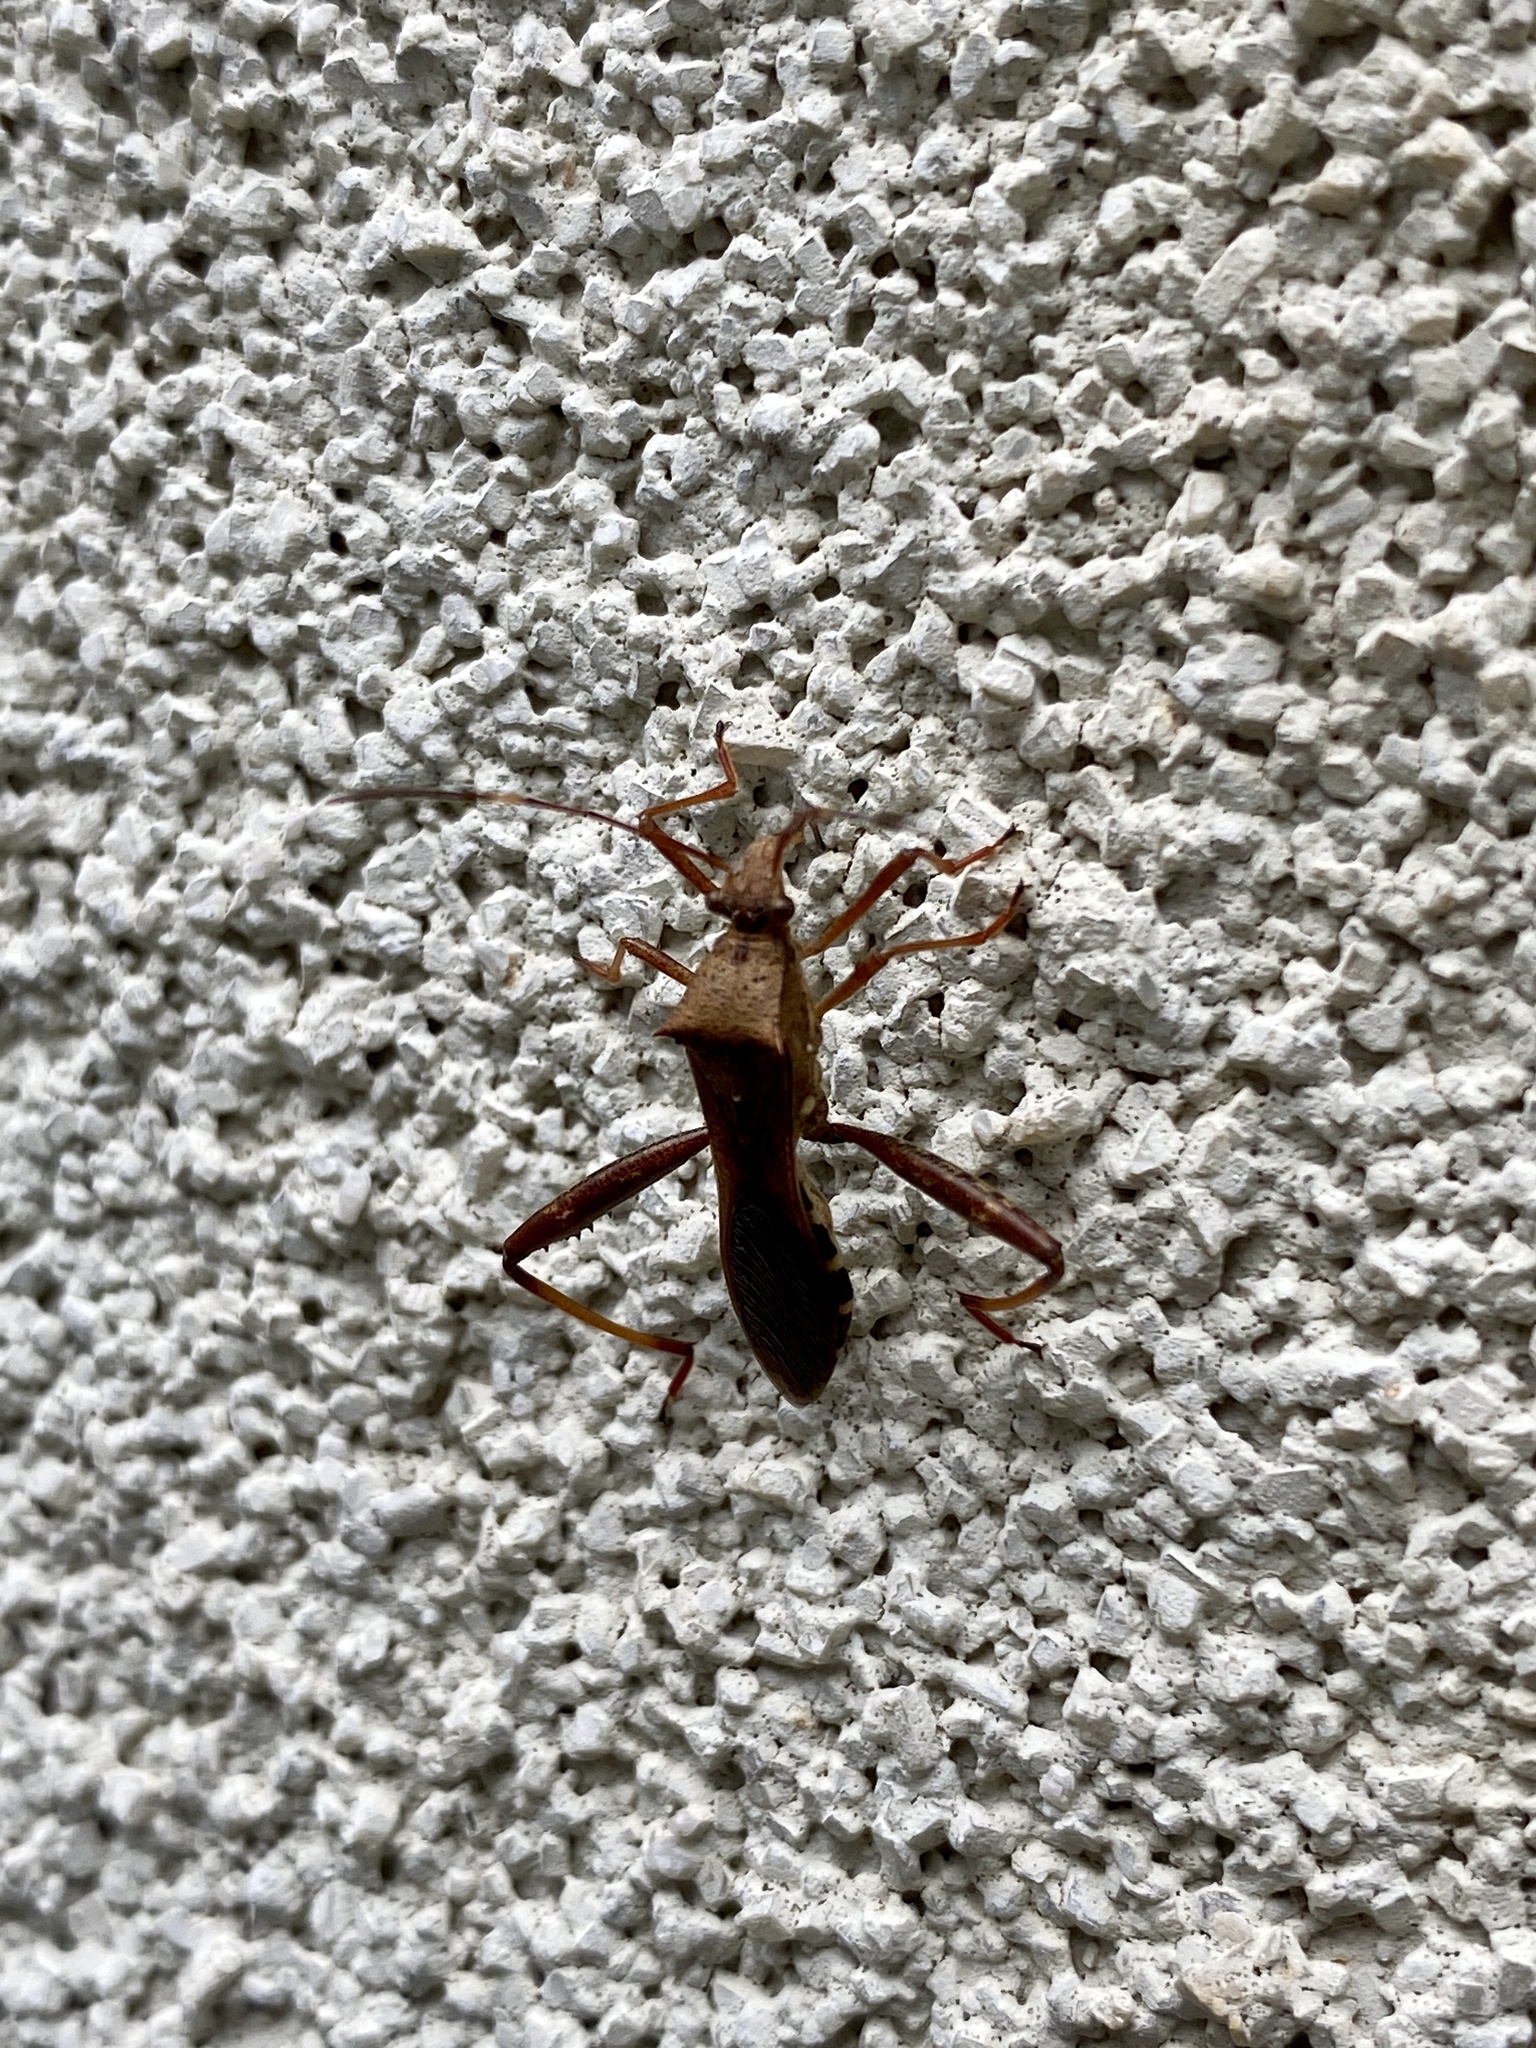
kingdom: Animalia
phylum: Arthropoda
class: Insecta
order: Hemiptera
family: Alydidae
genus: Riptortus
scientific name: Riptortus pedestris
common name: Bean bug
